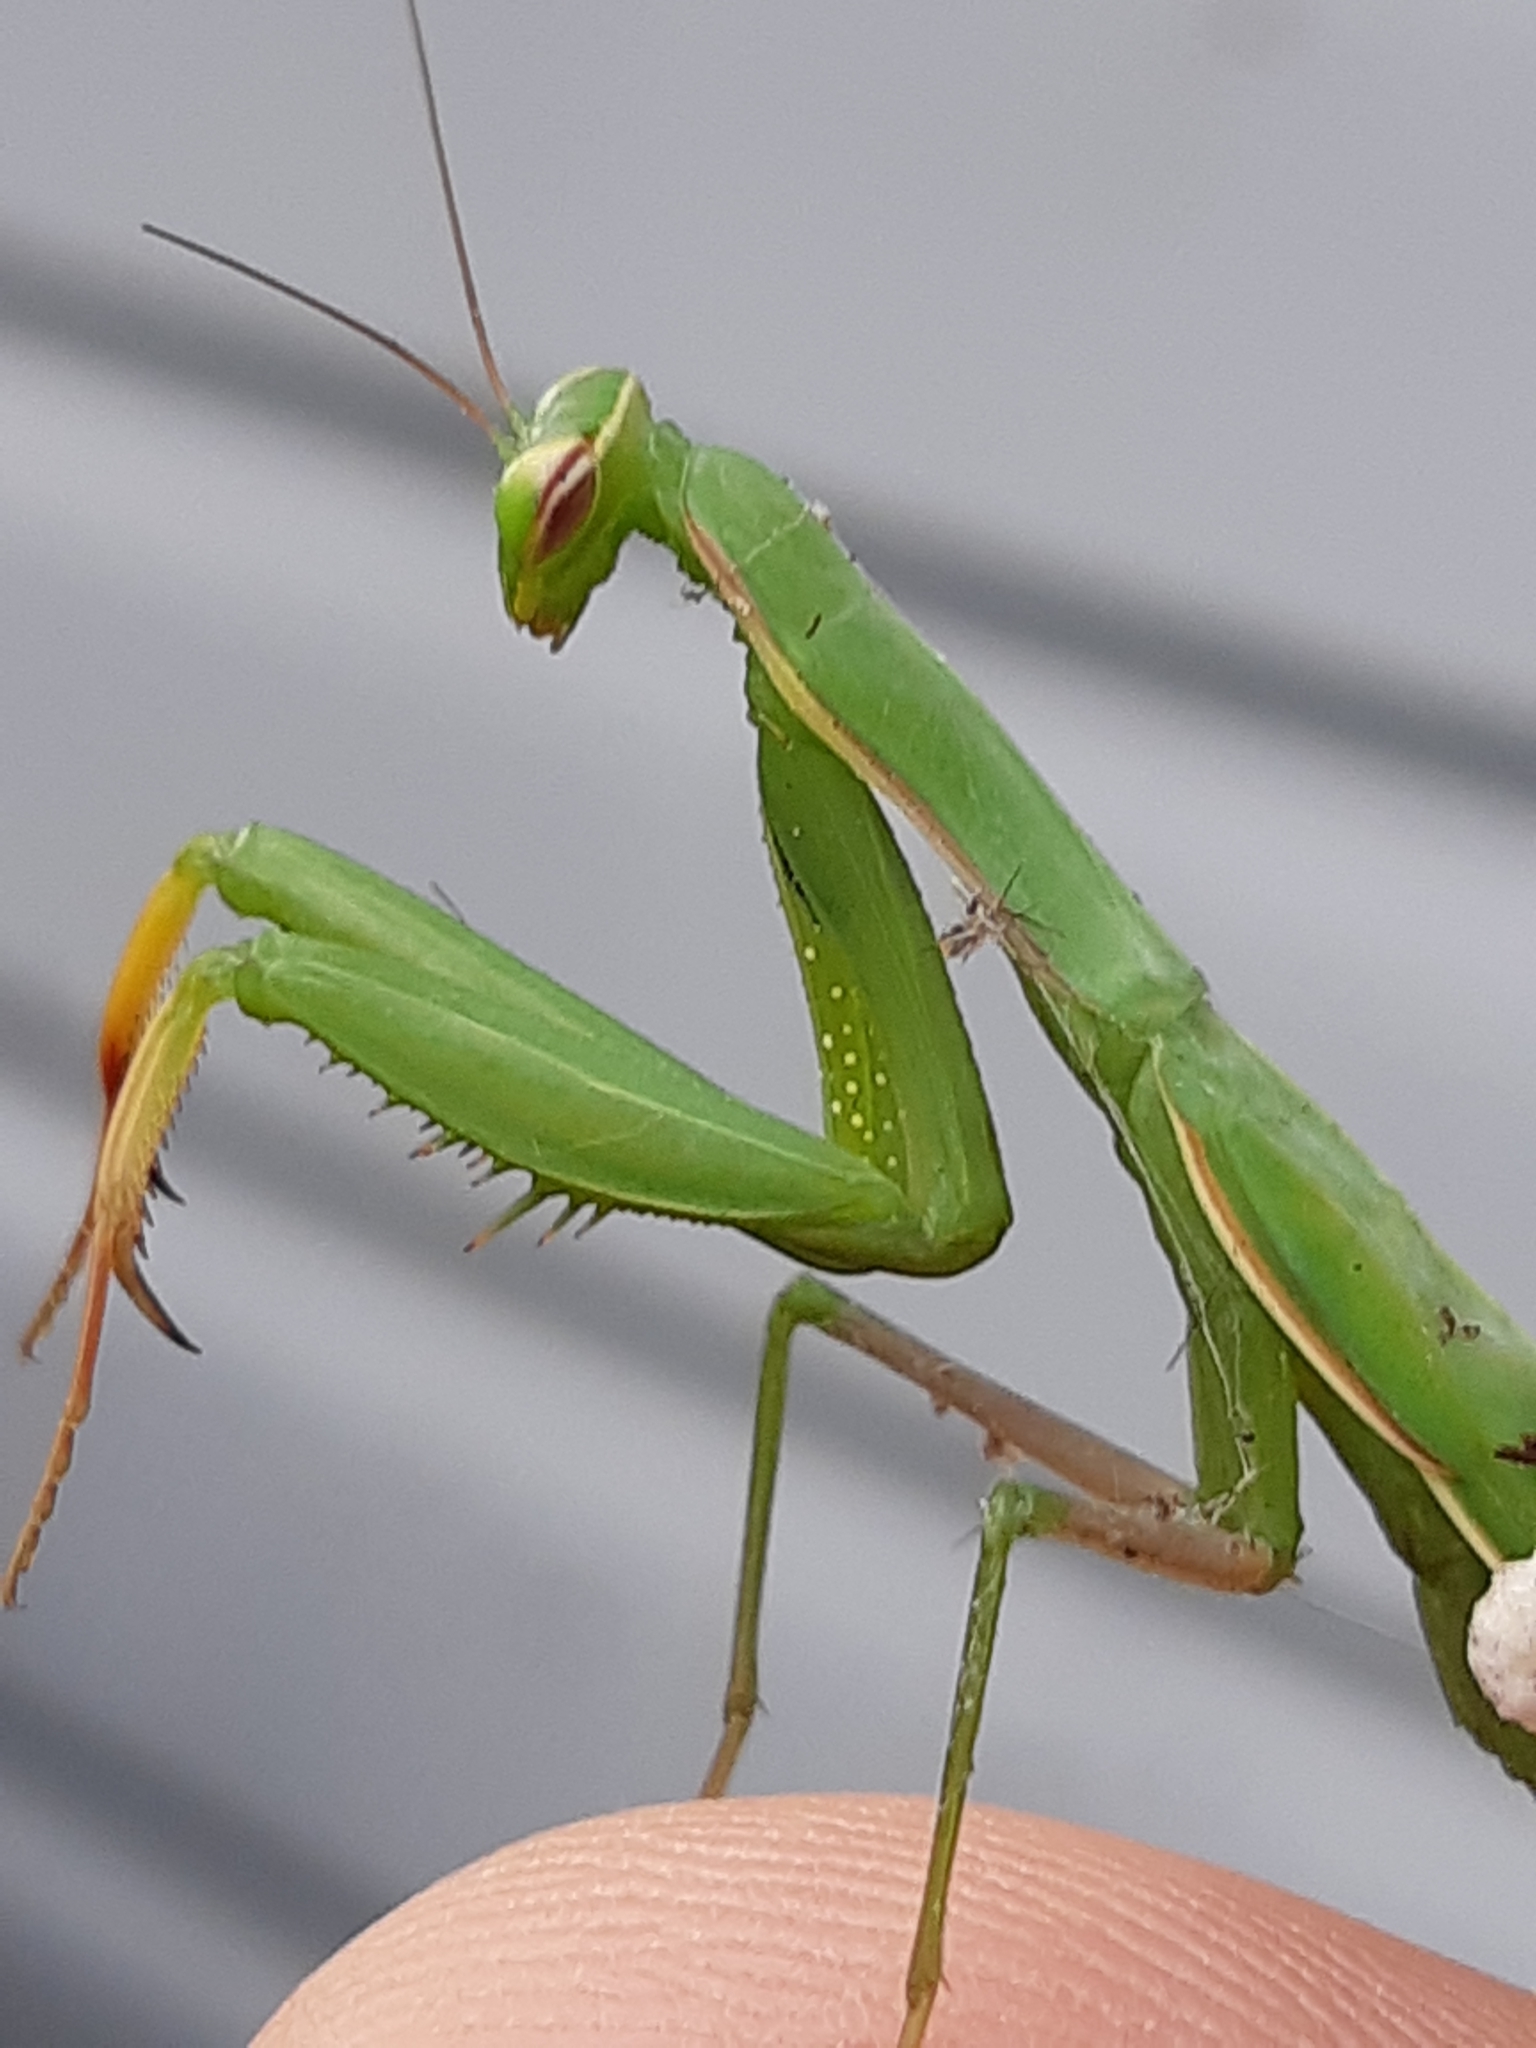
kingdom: Animalia
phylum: Arthropoda
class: Insecta
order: Mantodea
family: Mantidae
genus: Mantis
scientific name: Mantis religiosa
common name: Praying mantis
